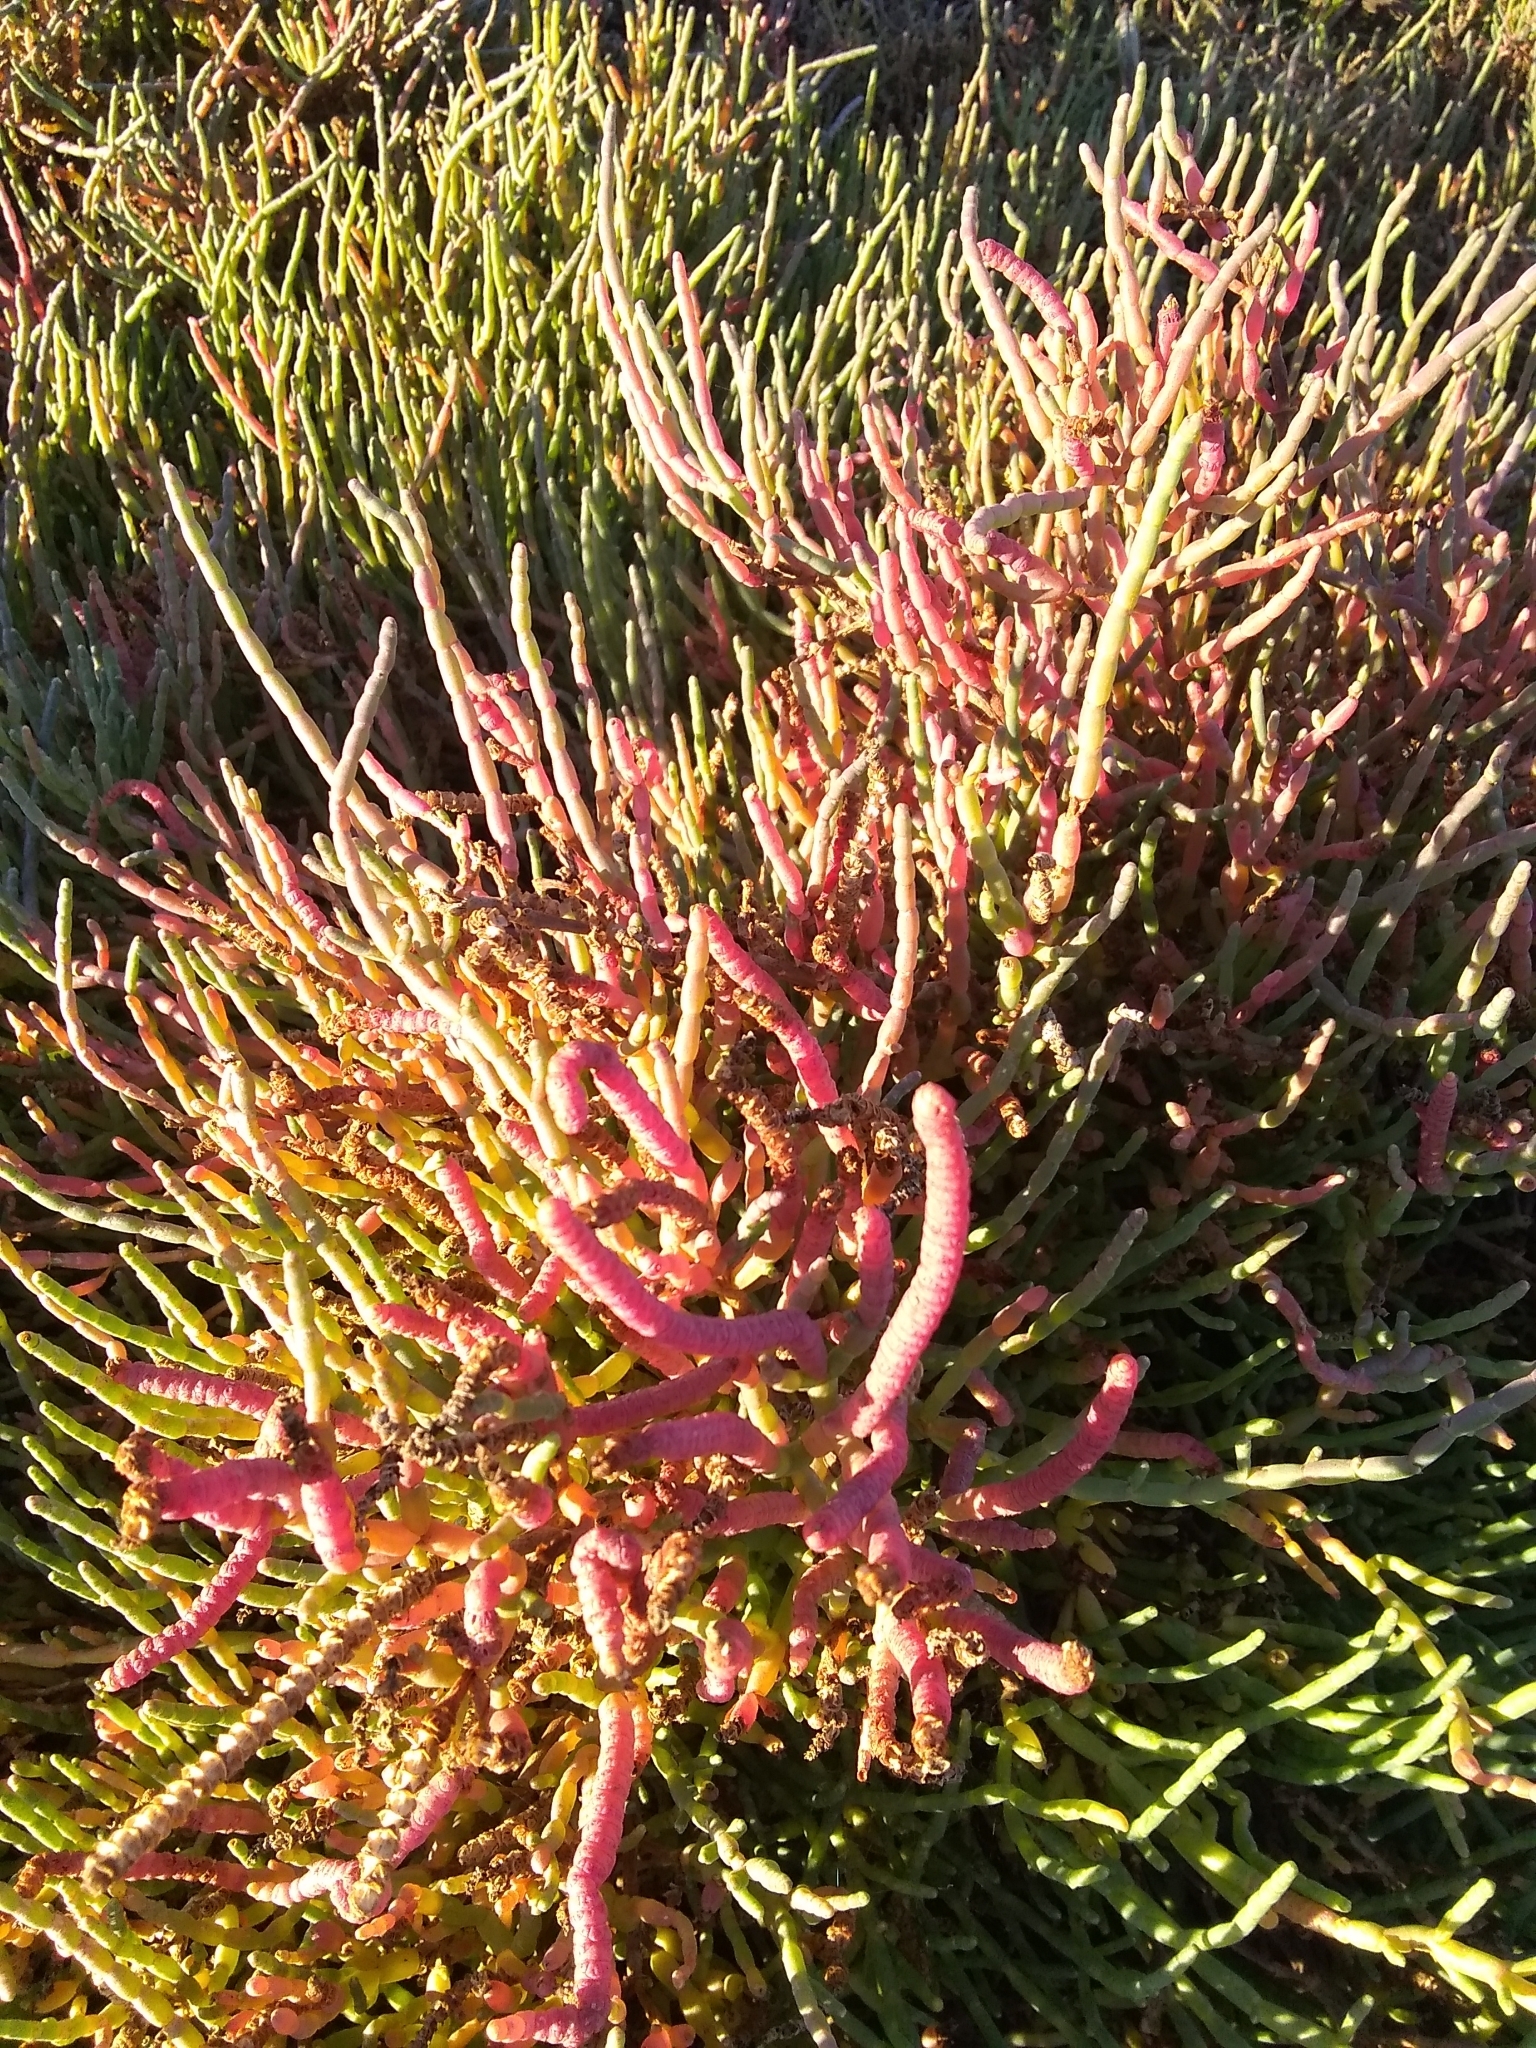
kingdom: Plantae
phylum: Tracheophyta
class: Magnoliopsida
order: Caryophyllales
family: Amaranthaceae
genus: Salicornia
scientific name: Salicornia pacifica
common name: Pacific glasswort
